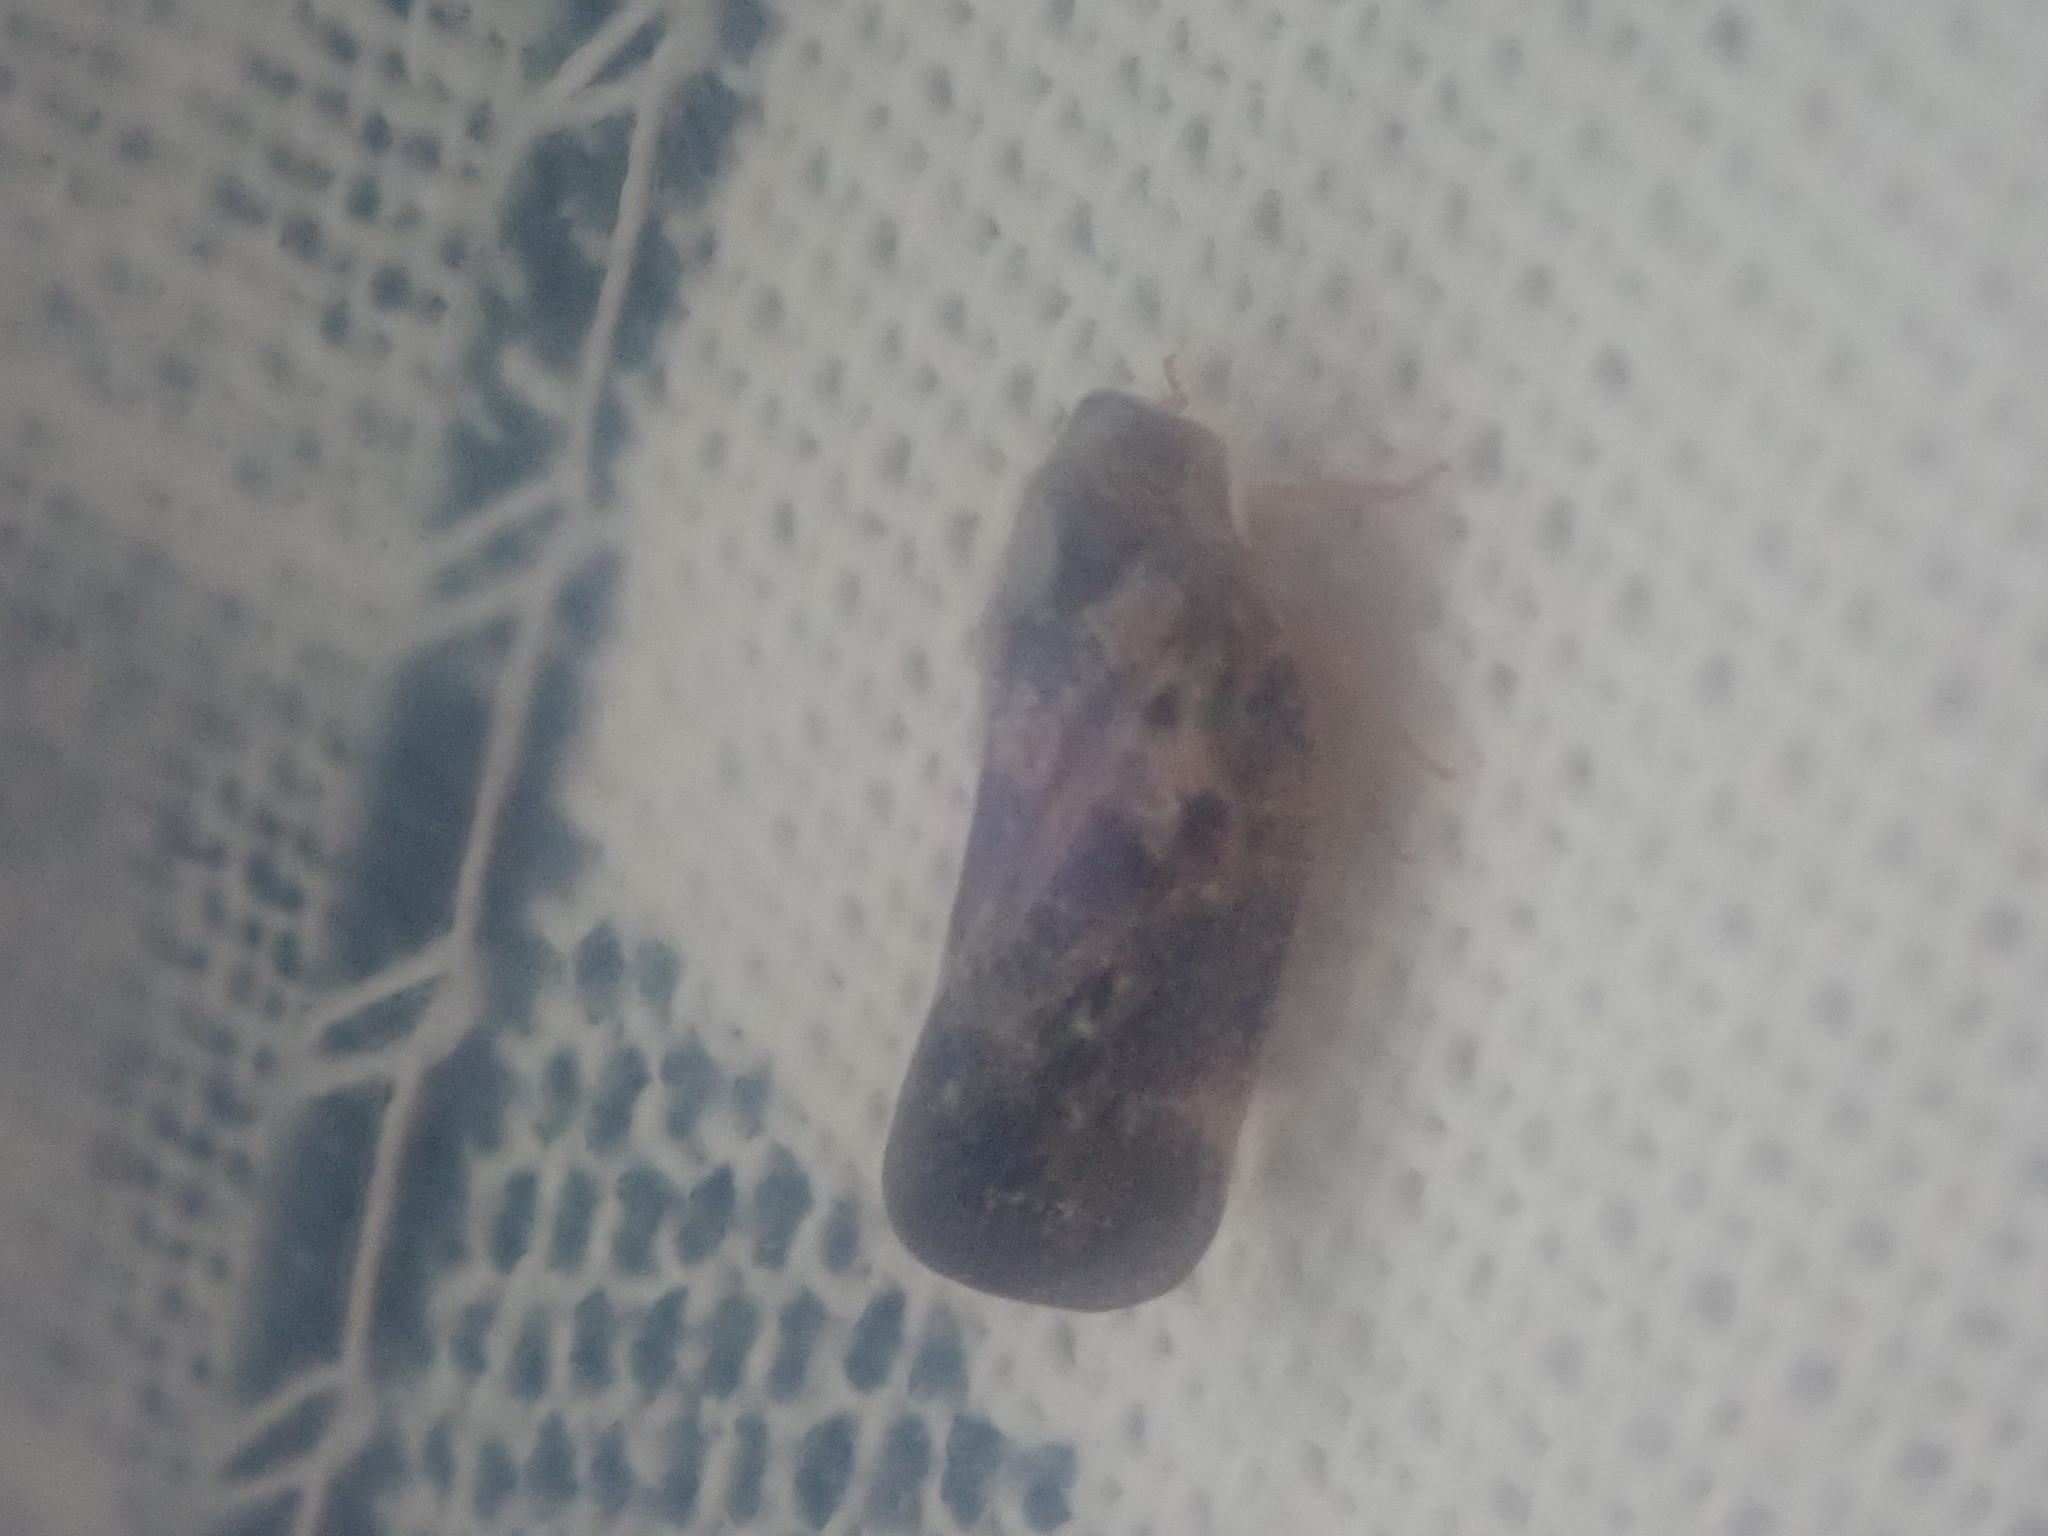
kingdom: Animalia
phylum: Arthropoda
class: Insecta
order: Hemiptera
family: Flatidae
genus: Metcalfa
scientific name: Metcalfa pruinosa
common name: Citrus flatid planthopper
